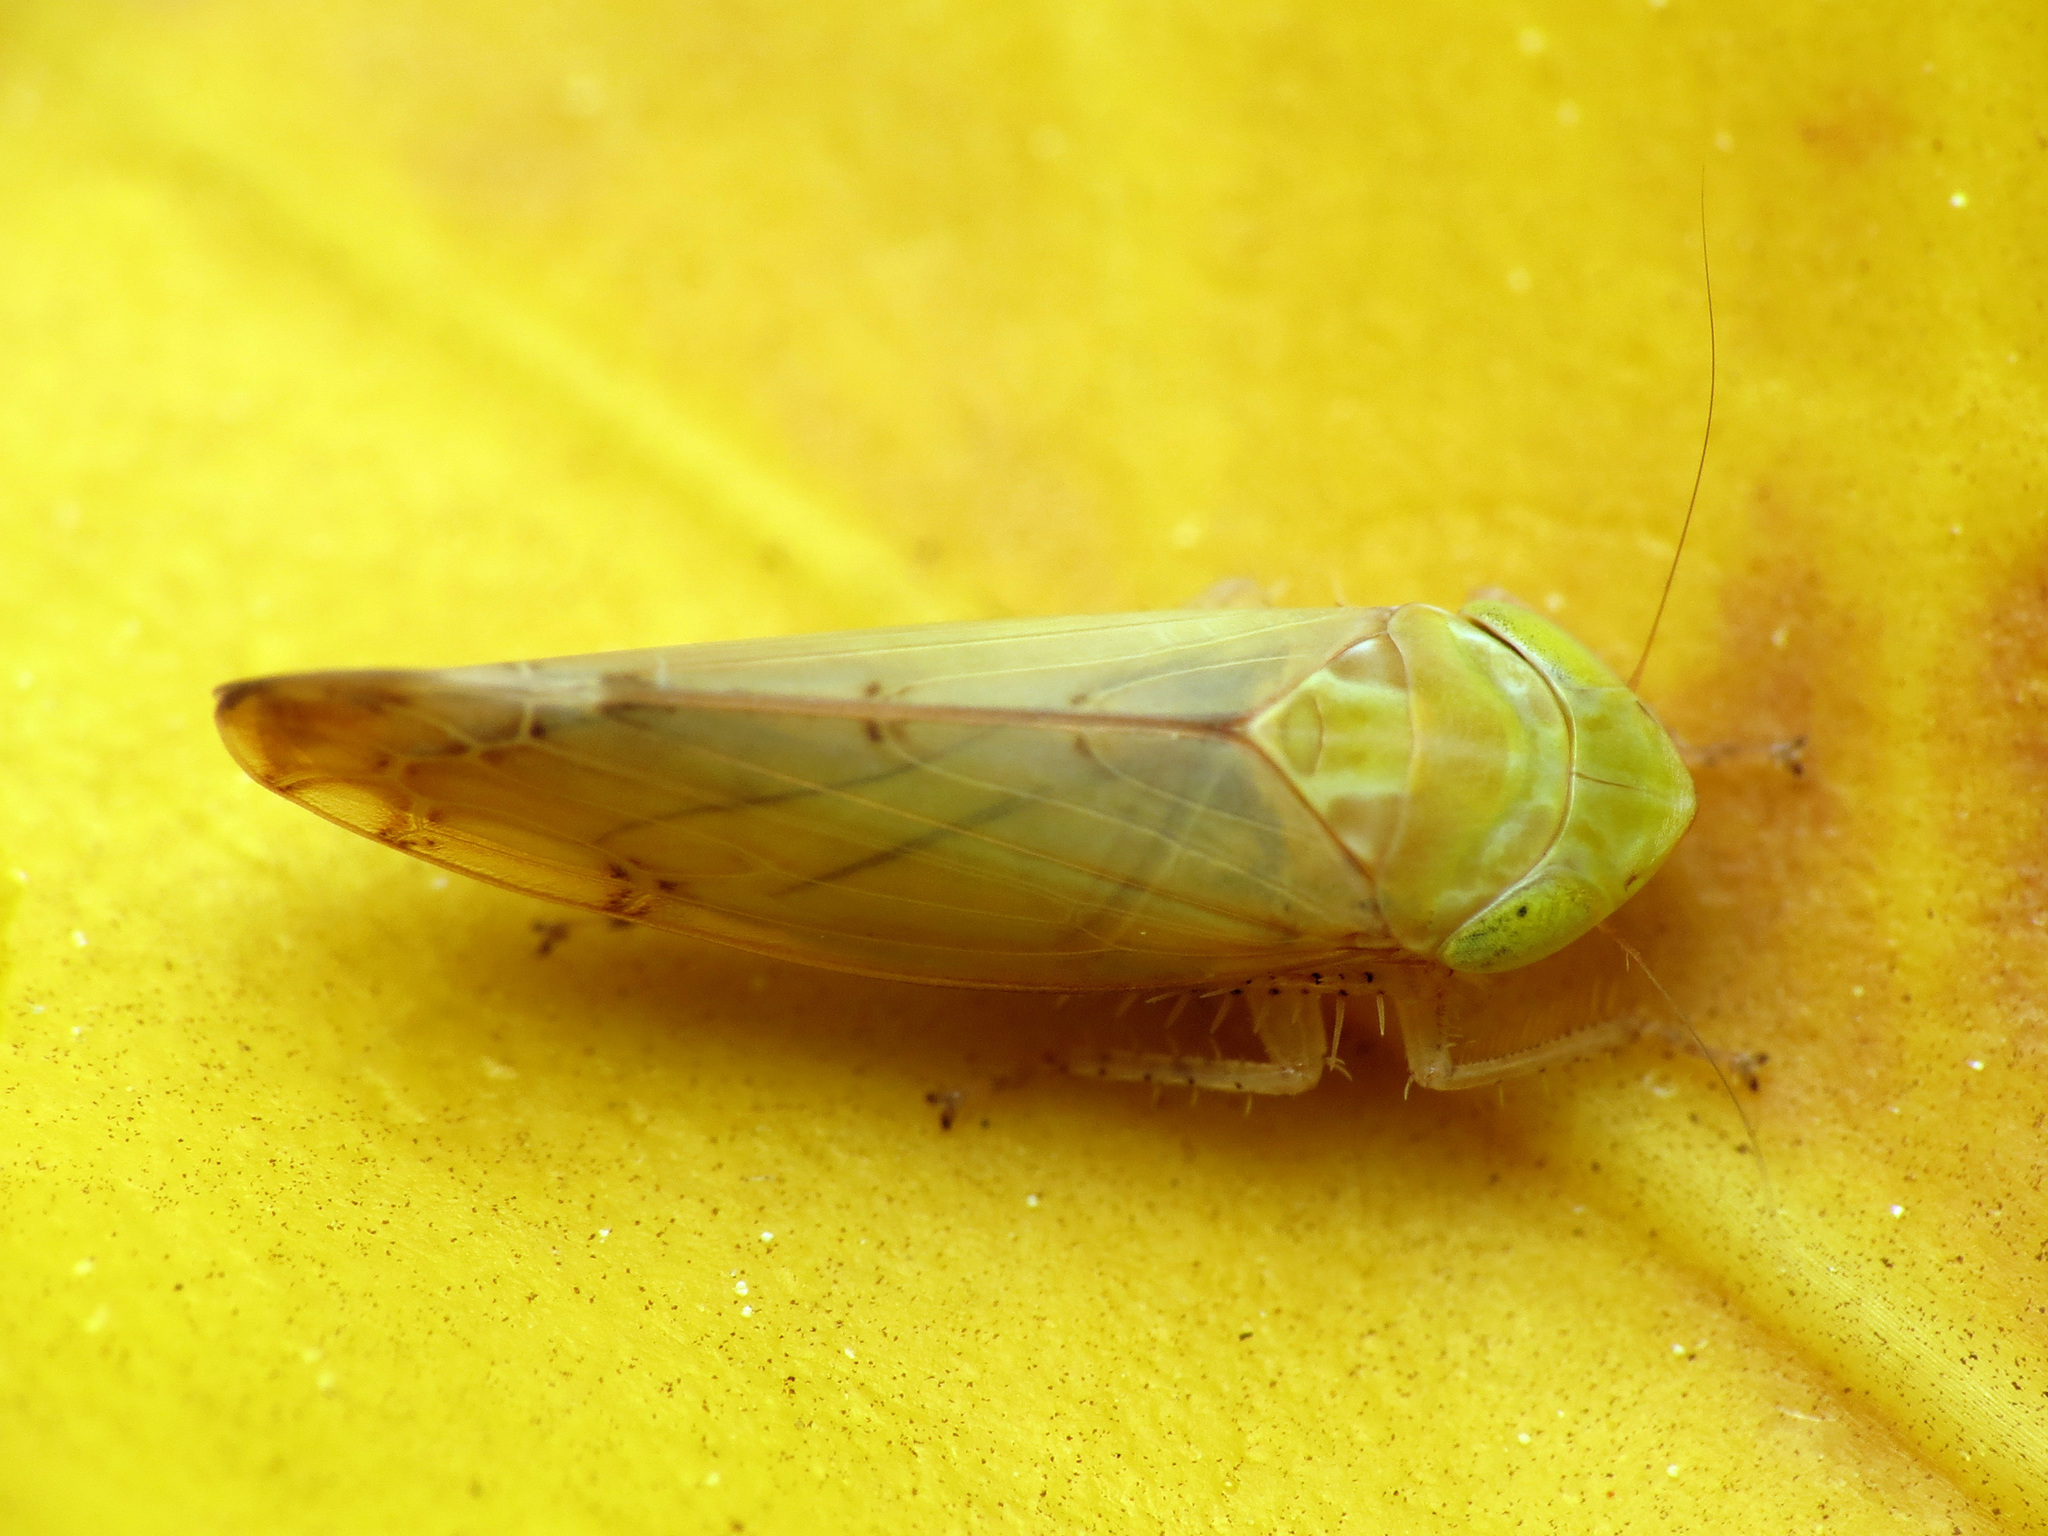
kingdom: Animalia
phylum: Arthropoda
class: Insecta
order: Hemiptera
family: Cicadellidae
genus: Synophropsis
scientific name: Synophropsis lauri
